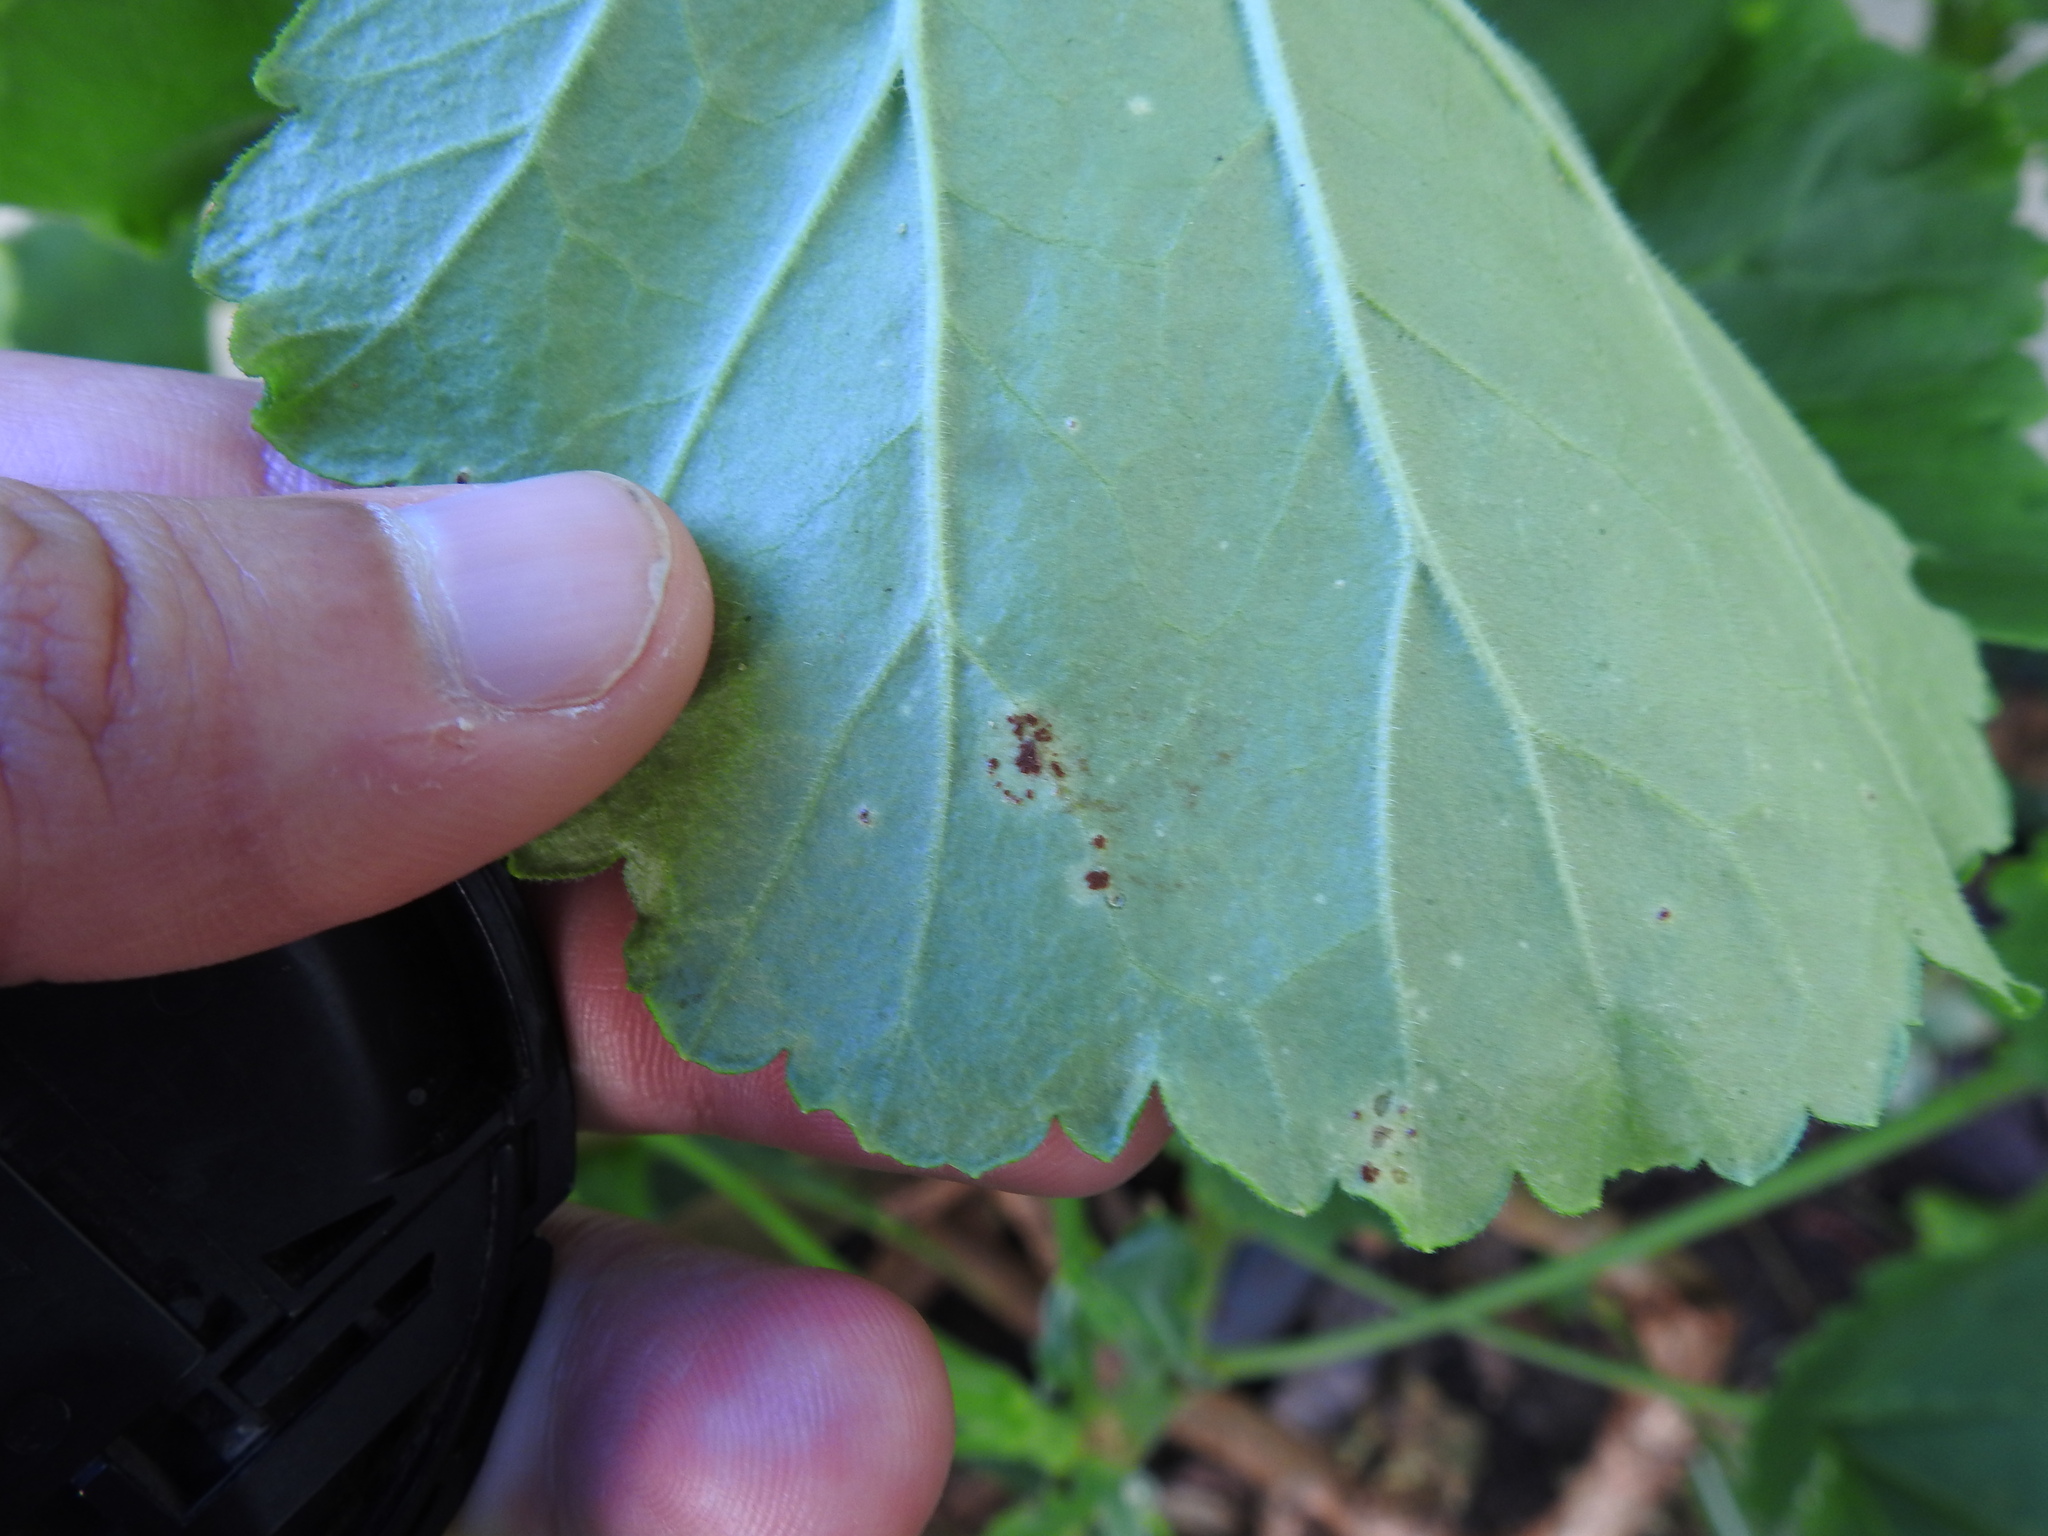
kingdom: Fungi
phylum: Basidiomycota
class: Pucciniomycetes
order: Pucciniales
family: Pucciniaceae
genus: Puccinia
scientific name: Puccinia pelargonii-zonalis
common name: Rust of pelargonium
